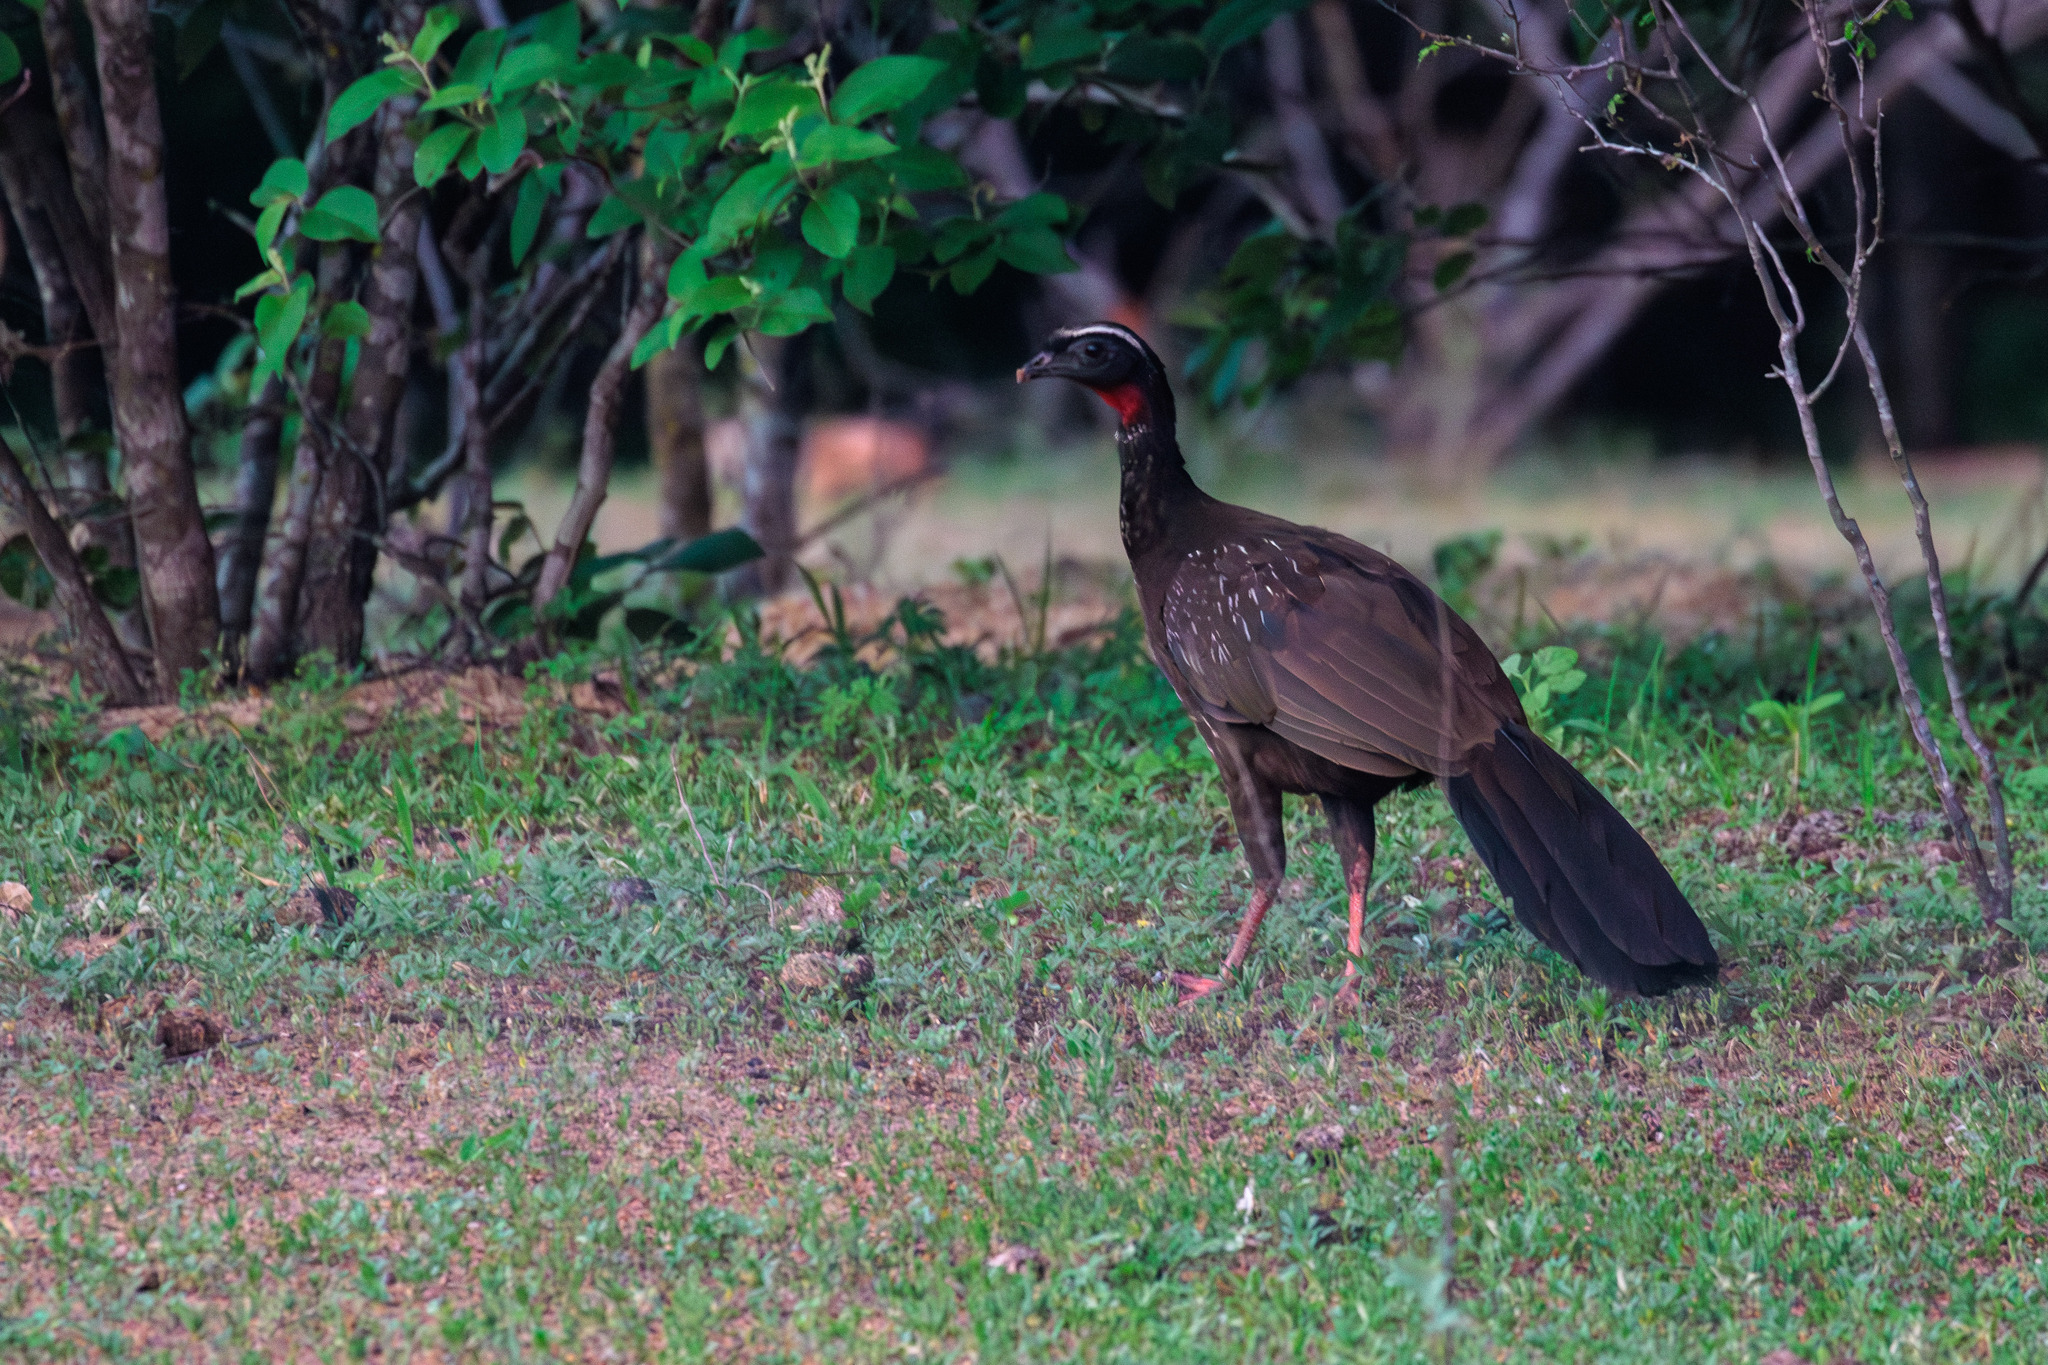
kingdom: Animalia
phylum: Chordata
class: Aves
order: Galliformes
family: Cracidae
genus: Penelope
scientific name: Penelope jacucaca
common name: White-browed guan
